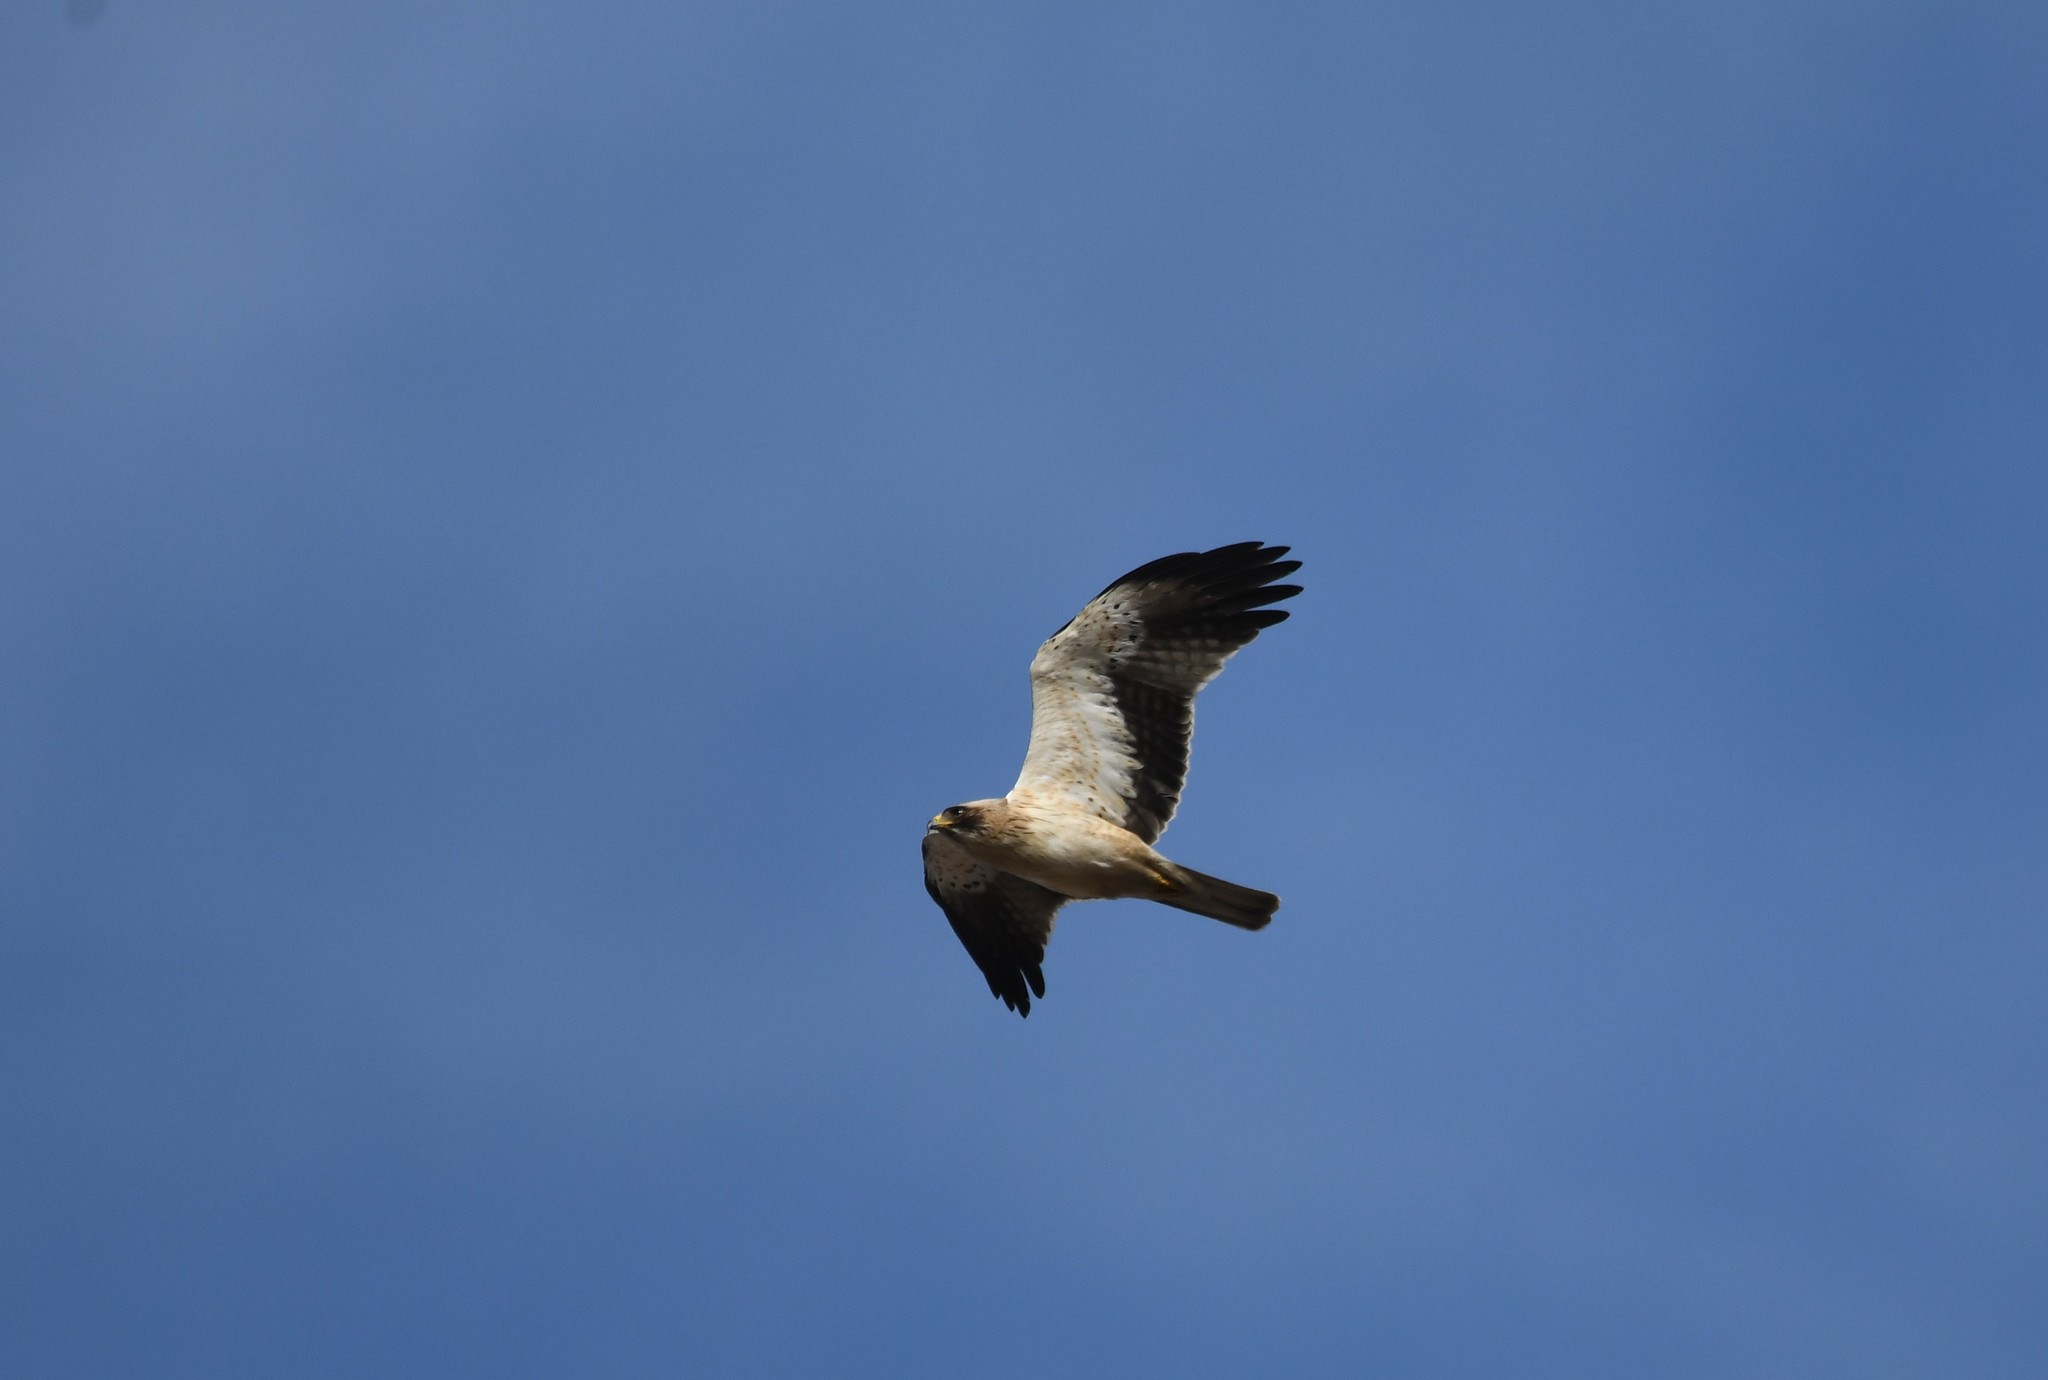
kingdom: Animalia
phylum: Chordata
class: Aves
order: Accipitriformes
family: Accipitridae
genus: Hieraaetus
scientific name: Hieraaetus pennatus
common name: Booted eagle
